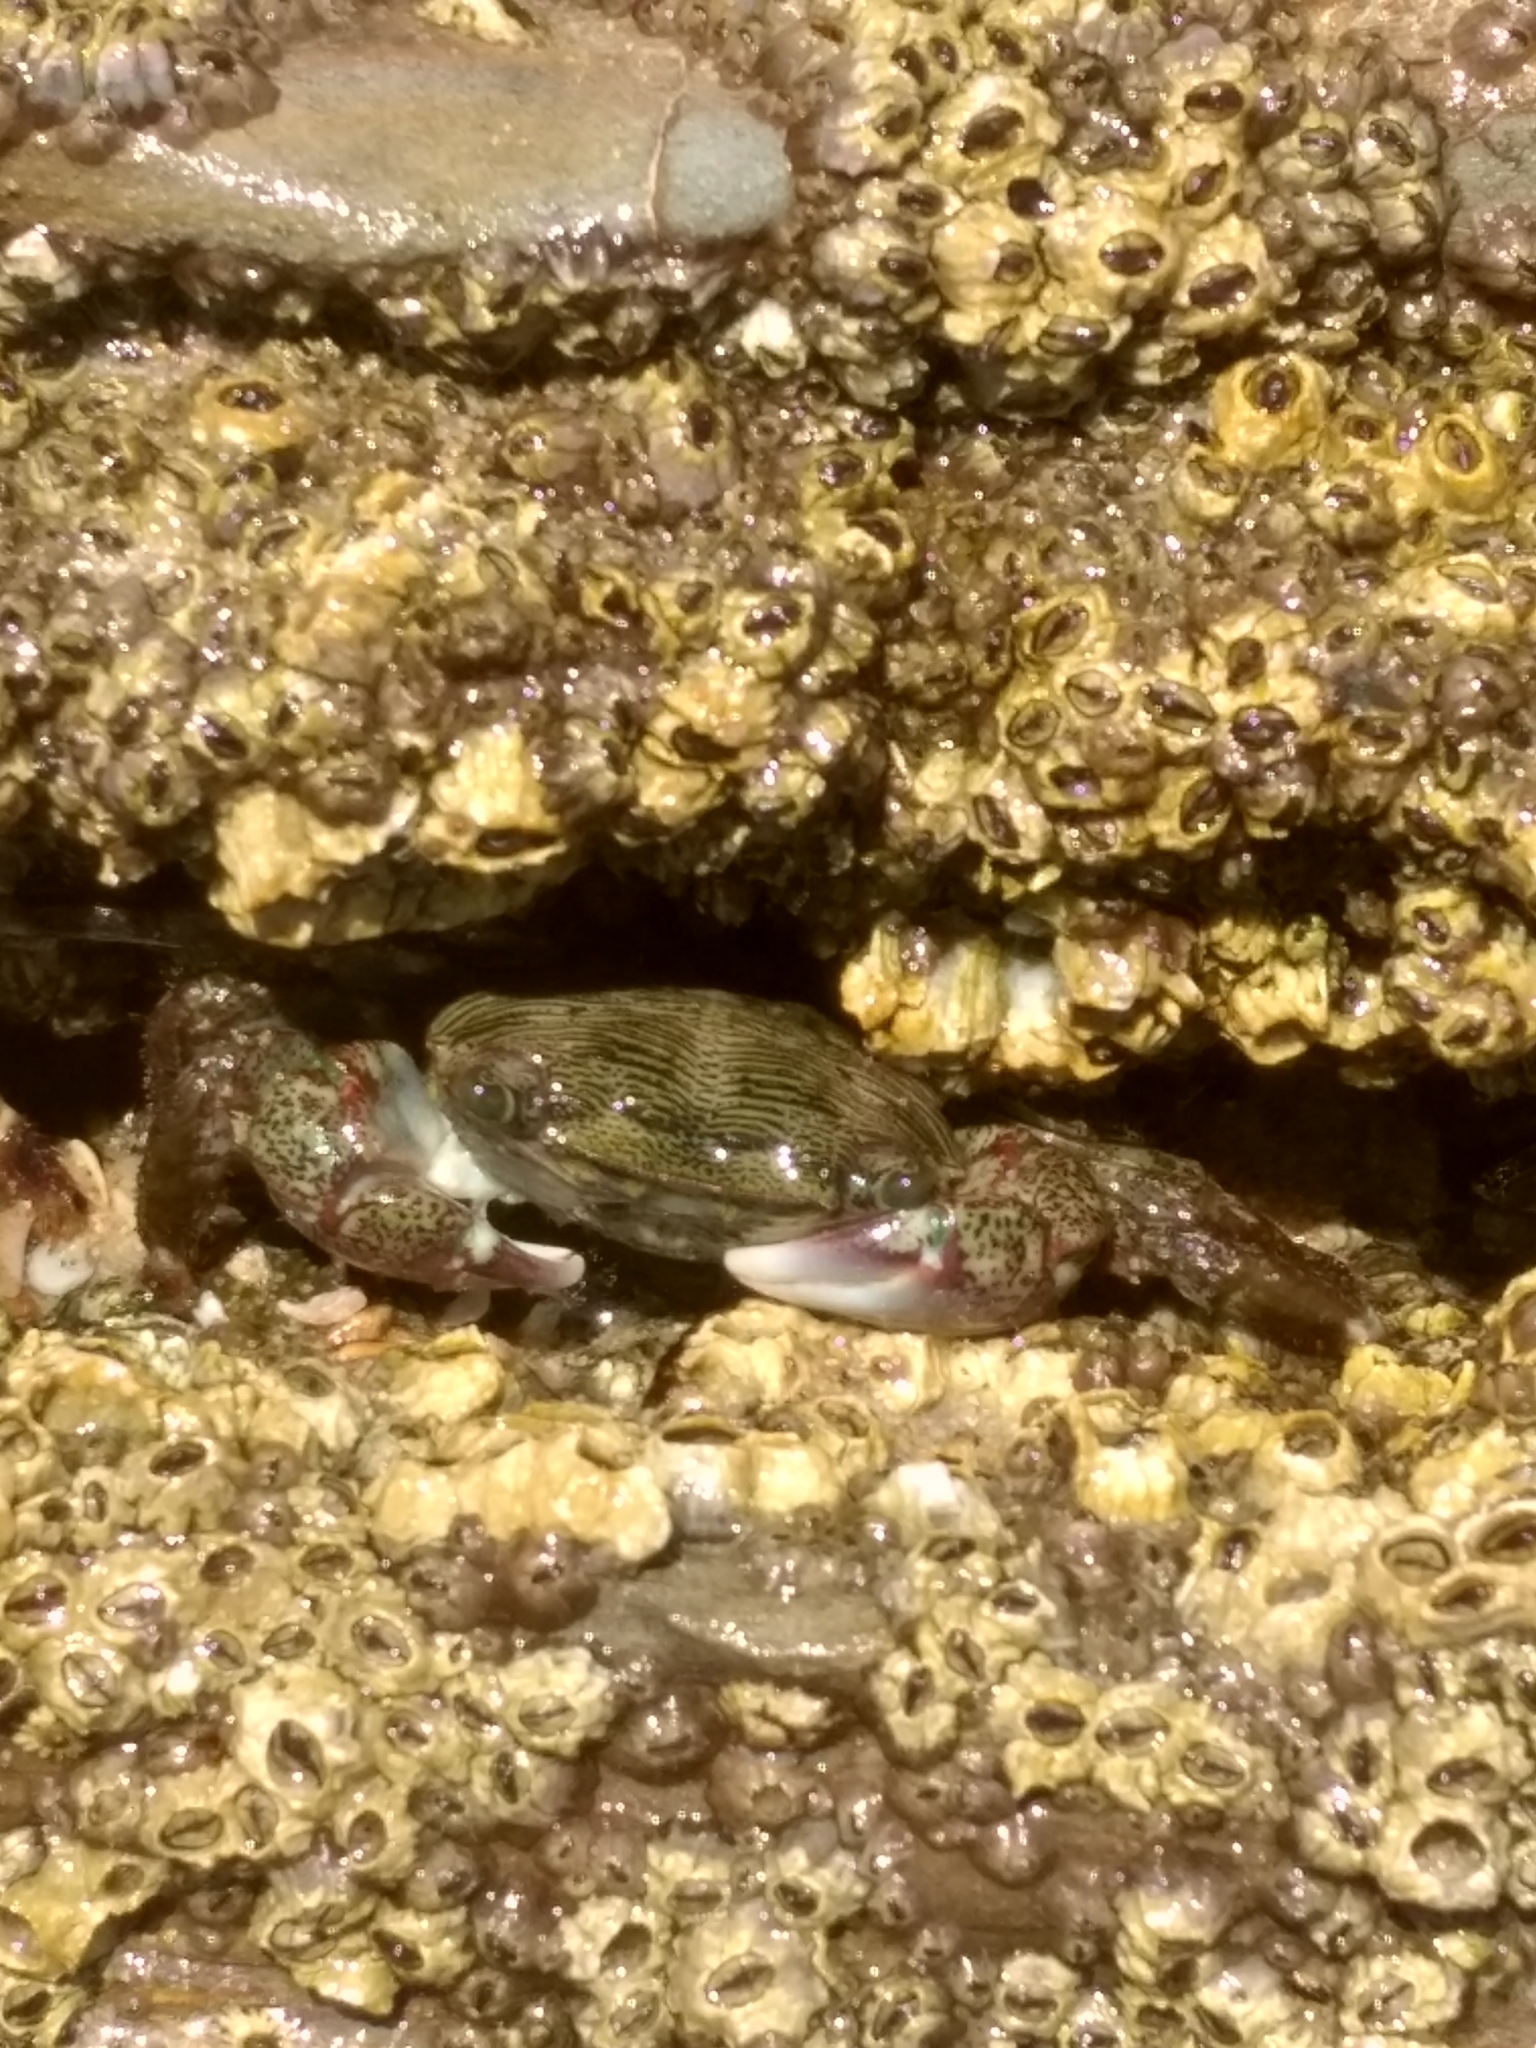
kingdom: Animalia
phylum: Arthropoda
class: Malacostraca
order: Decapoda
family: Grapsidae
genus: Pachygrapsus
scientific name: Pachygrapsus crassipes
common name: Striped shore crab
